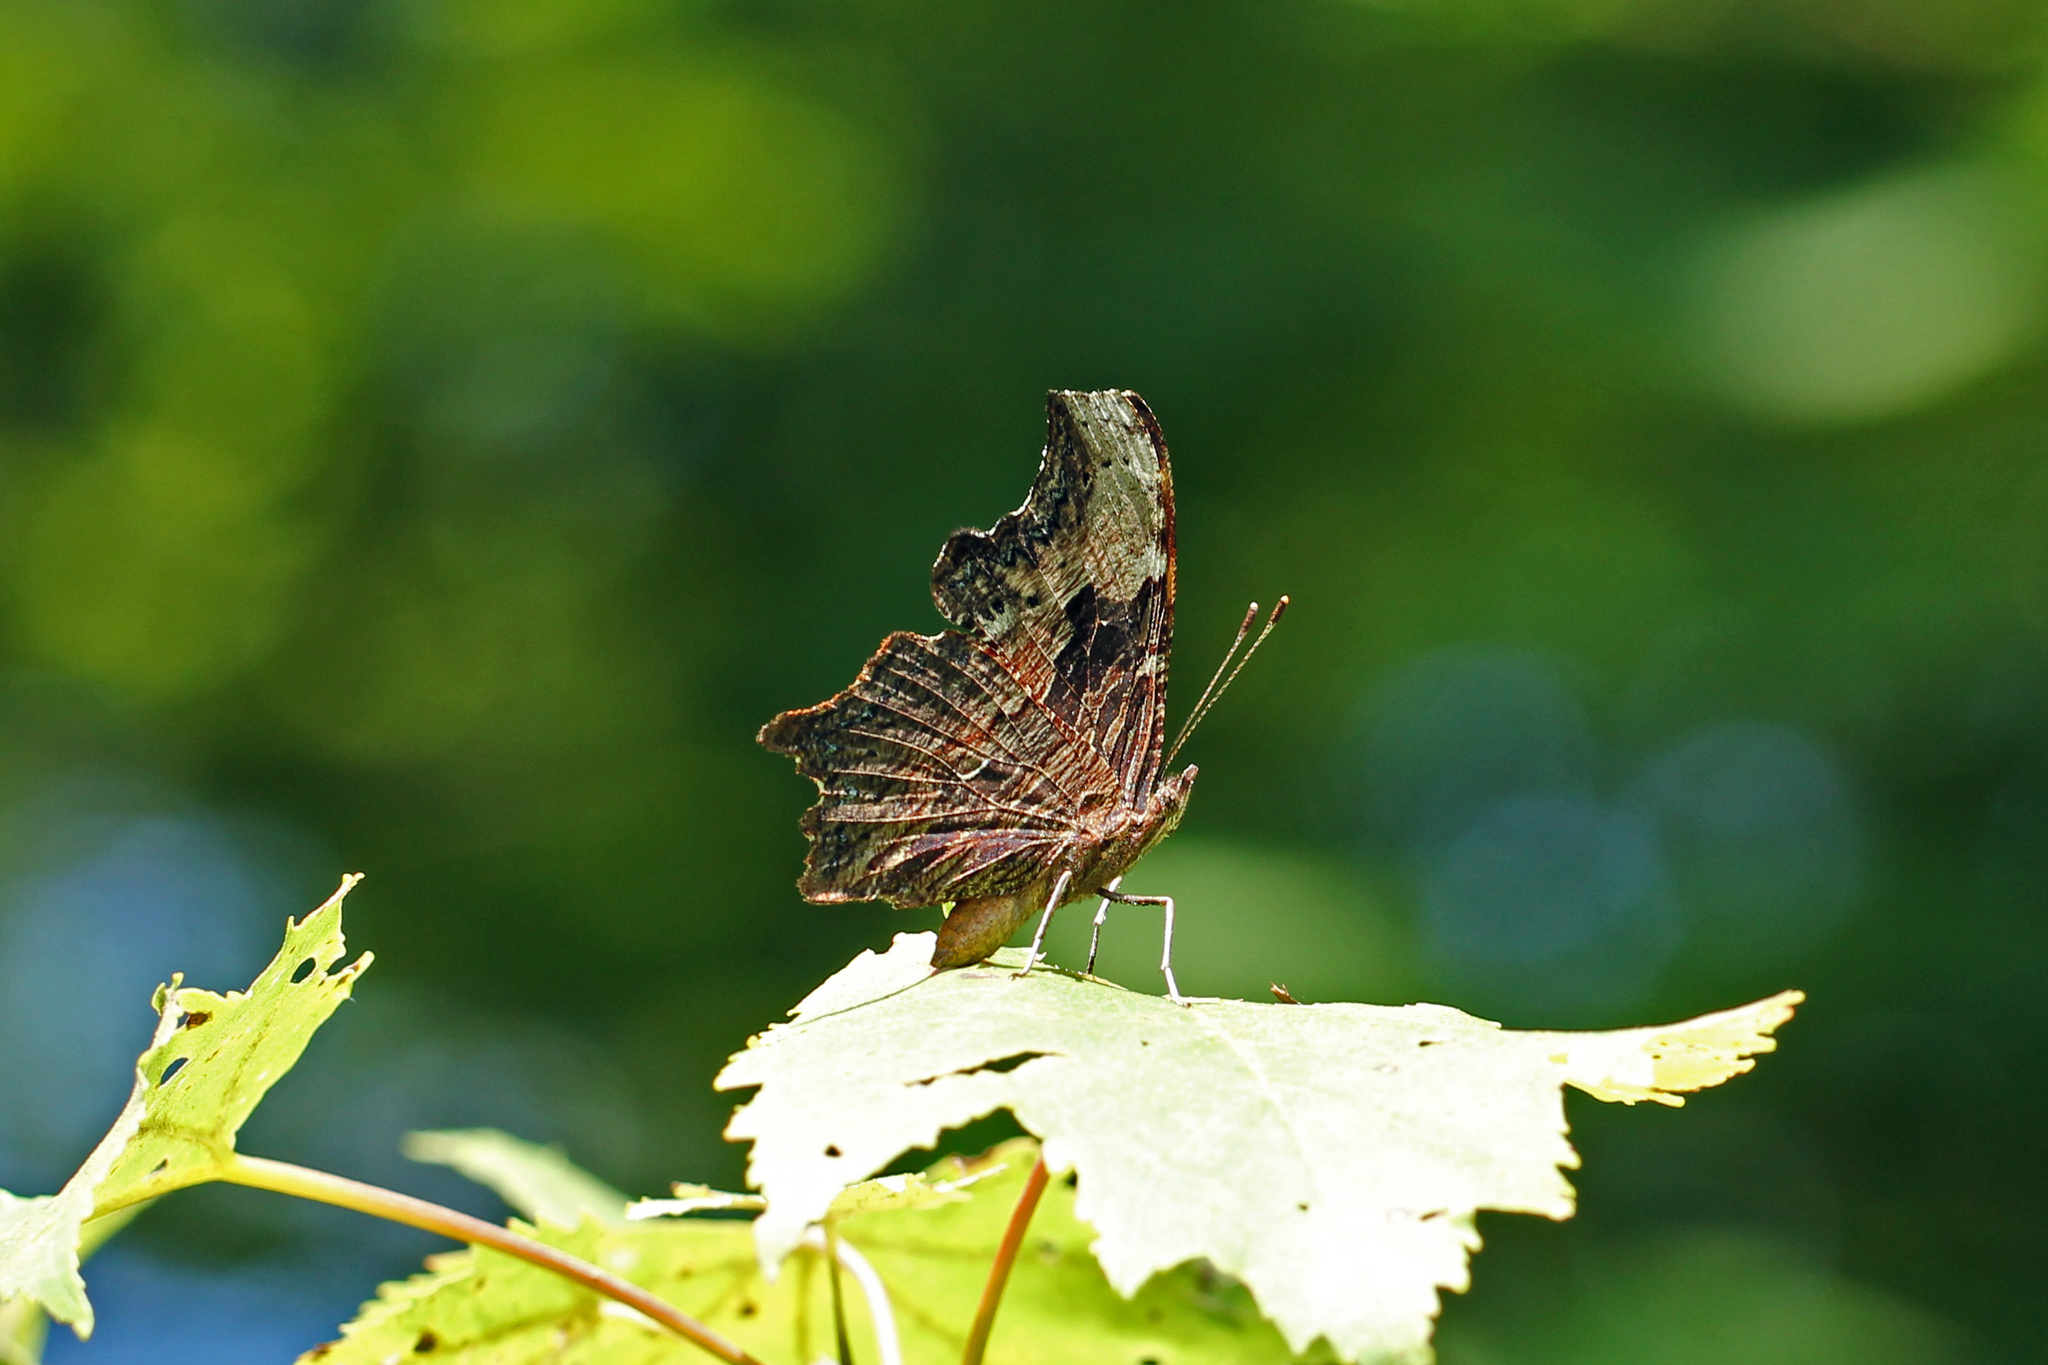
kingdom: Animalia
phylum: Arthropoda
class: Insecta
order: Lepidoptera
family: Nymphalidae
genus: Polygonia
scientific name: Polygonia progne
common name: Gray comma
